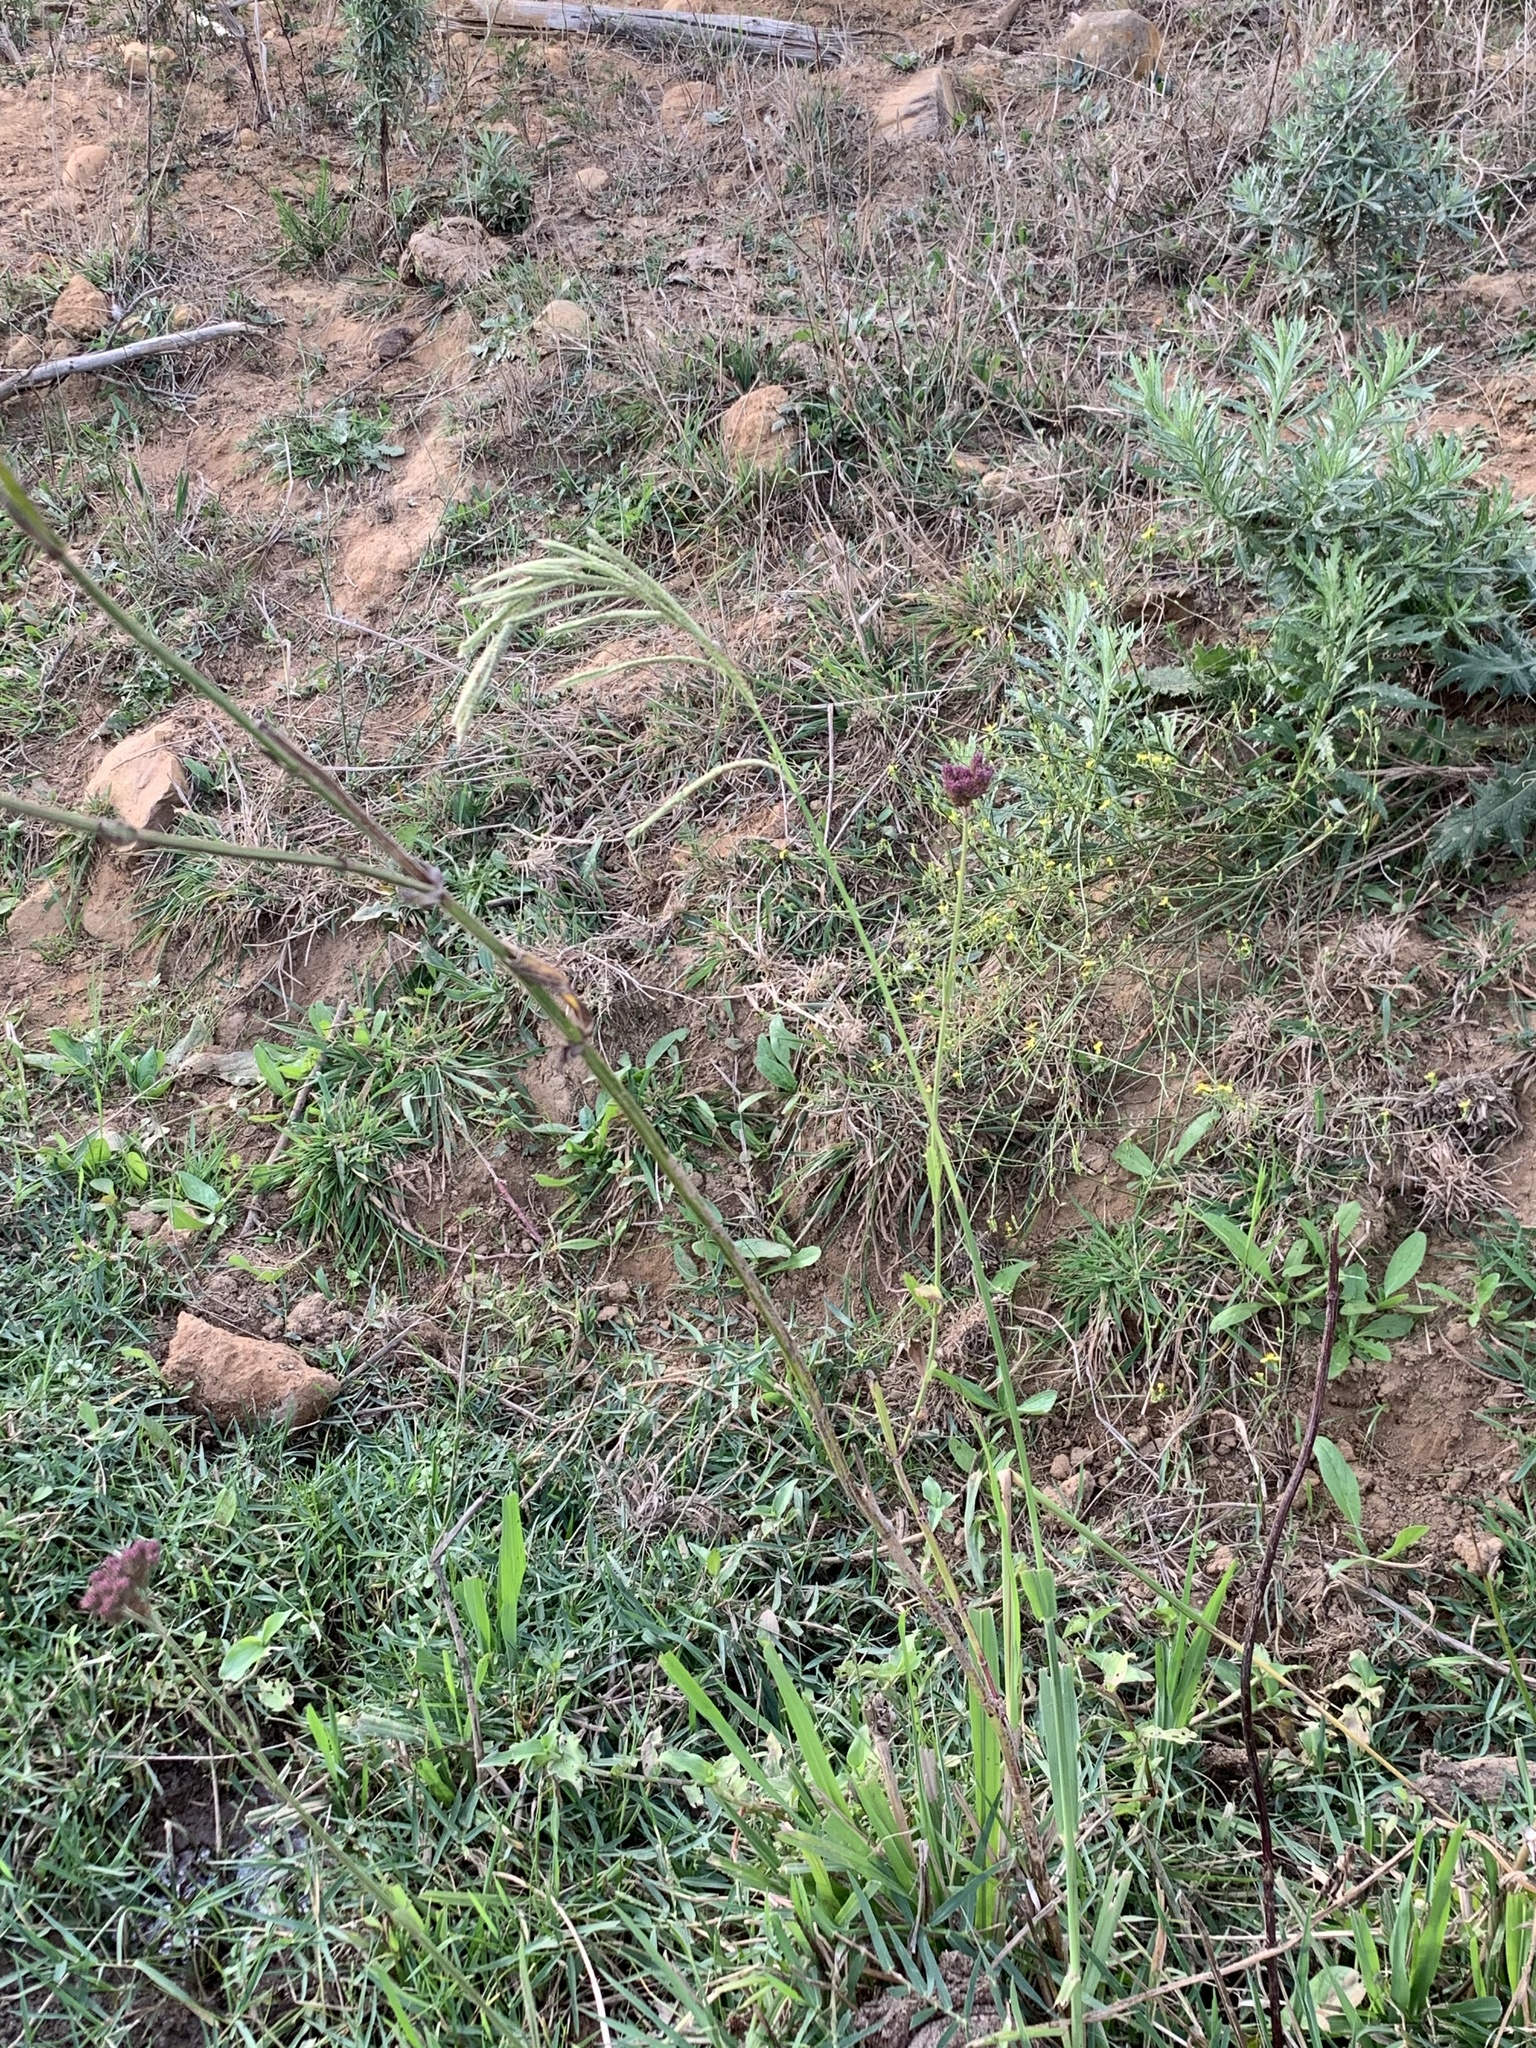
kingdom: Plantae
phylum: Tracheophyta
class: Liliopsida
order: Poales
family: Poaceae
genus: Paspalum
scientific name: Paspalum urvillei
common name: Vasey's grass
